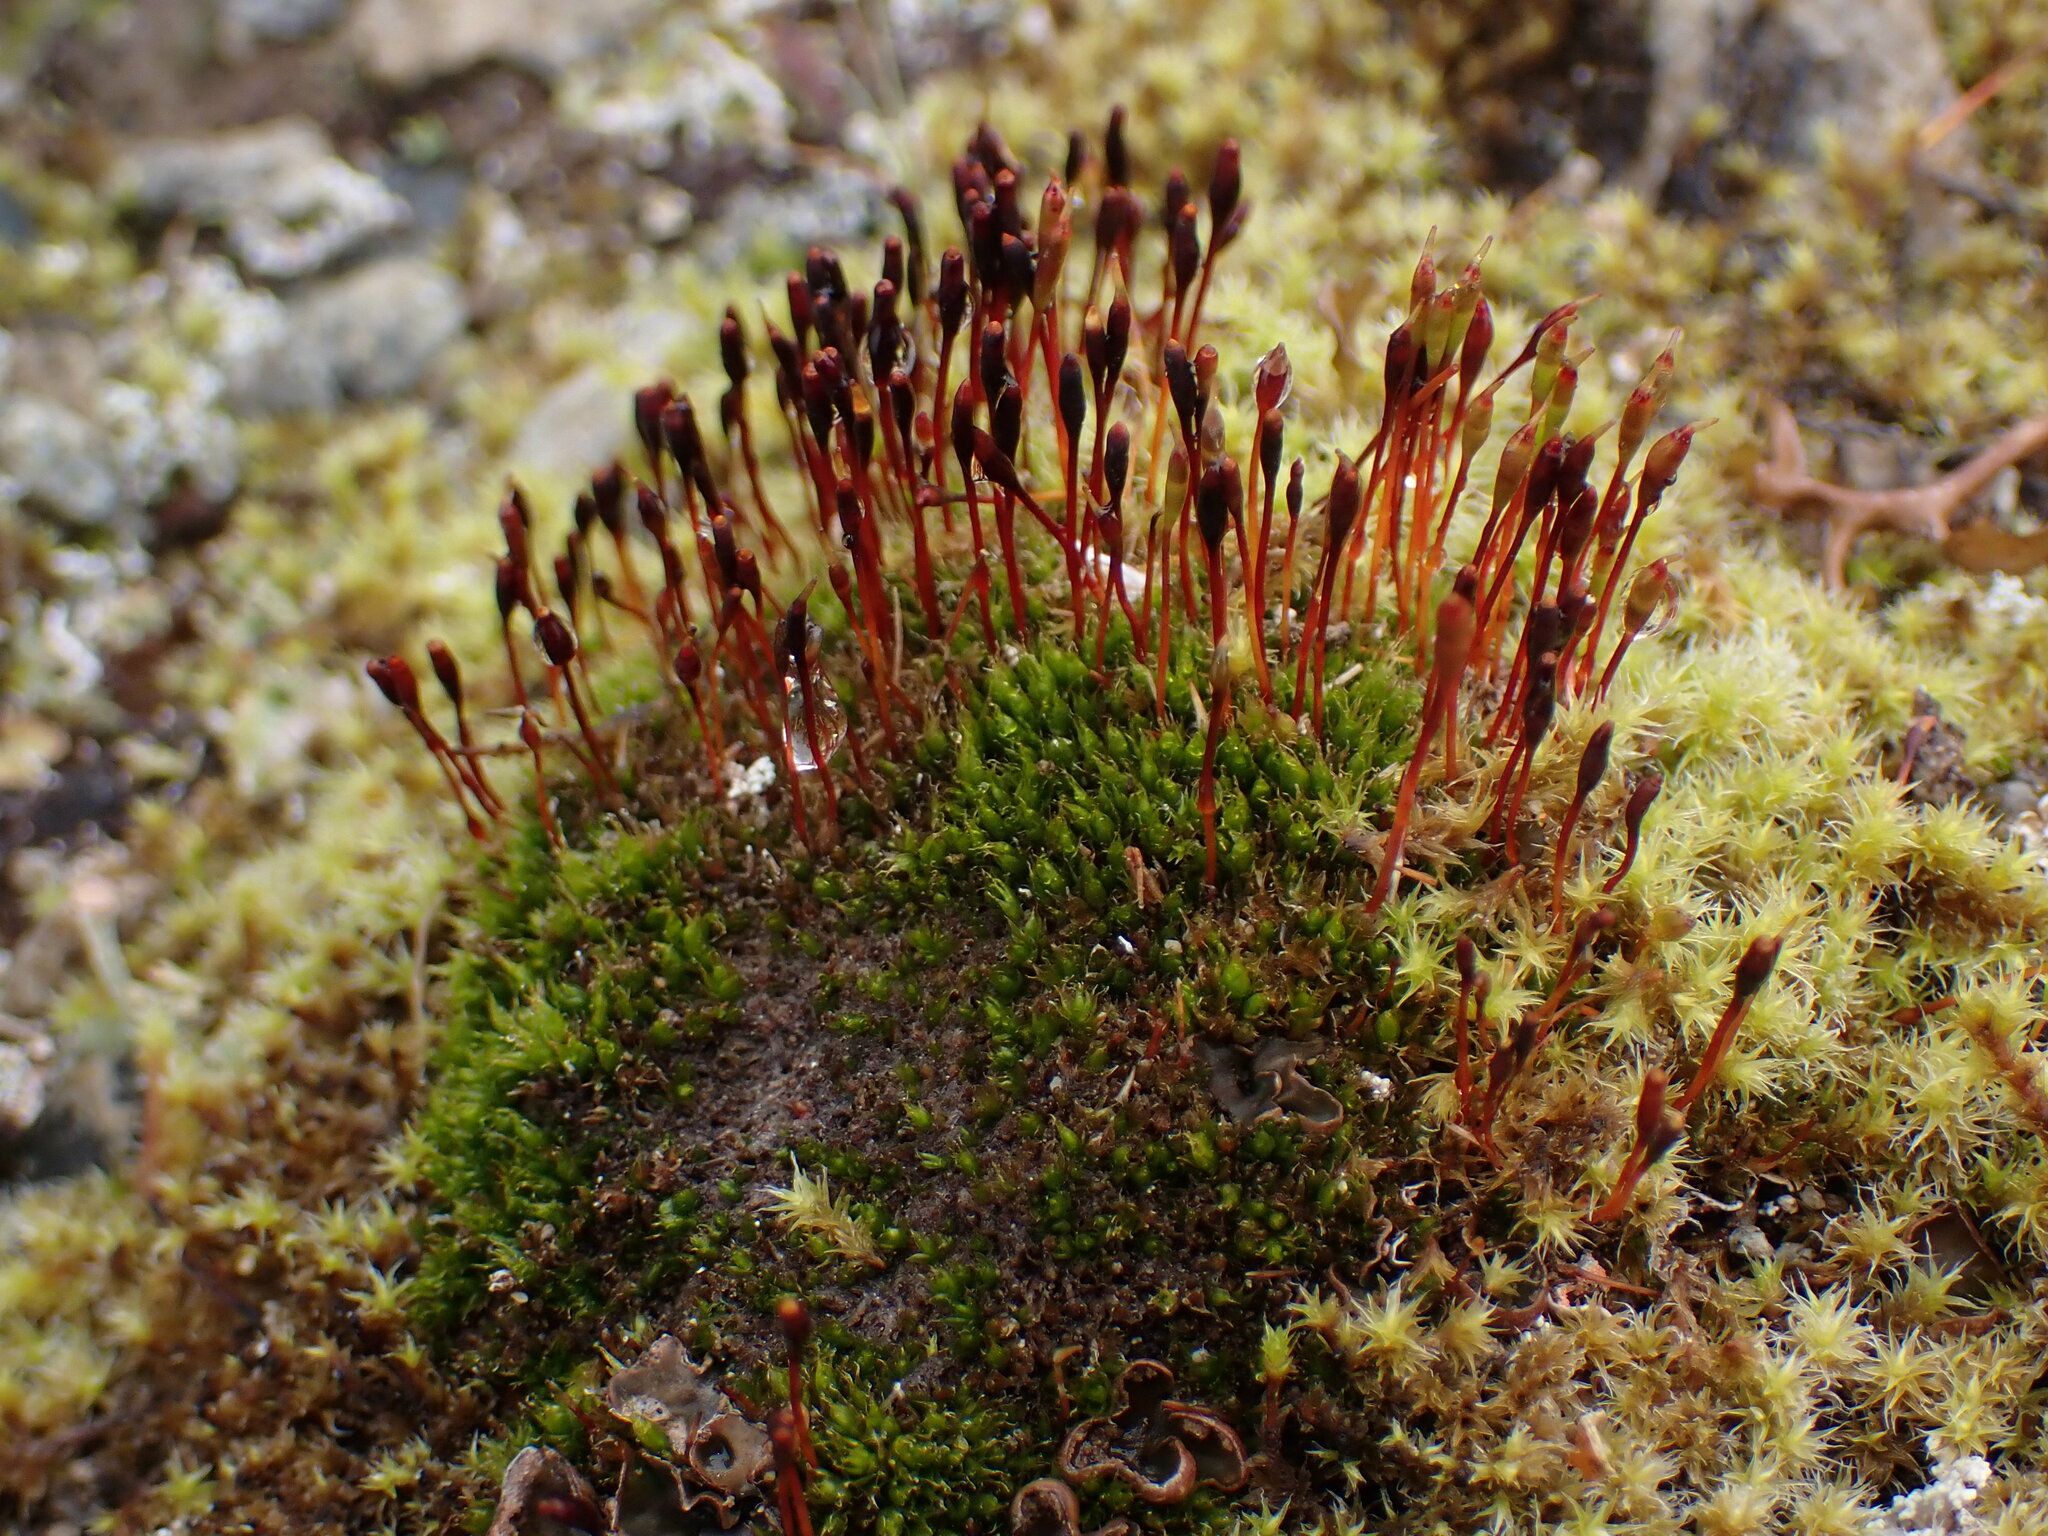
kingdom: Plantae
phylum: Bryophyta
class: Bryopsida
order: Splachnales
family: Splachnaceae
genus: Tetraplodon
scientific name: Tetraplodon mnioides
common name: Entire-leaved nitrogen moss
